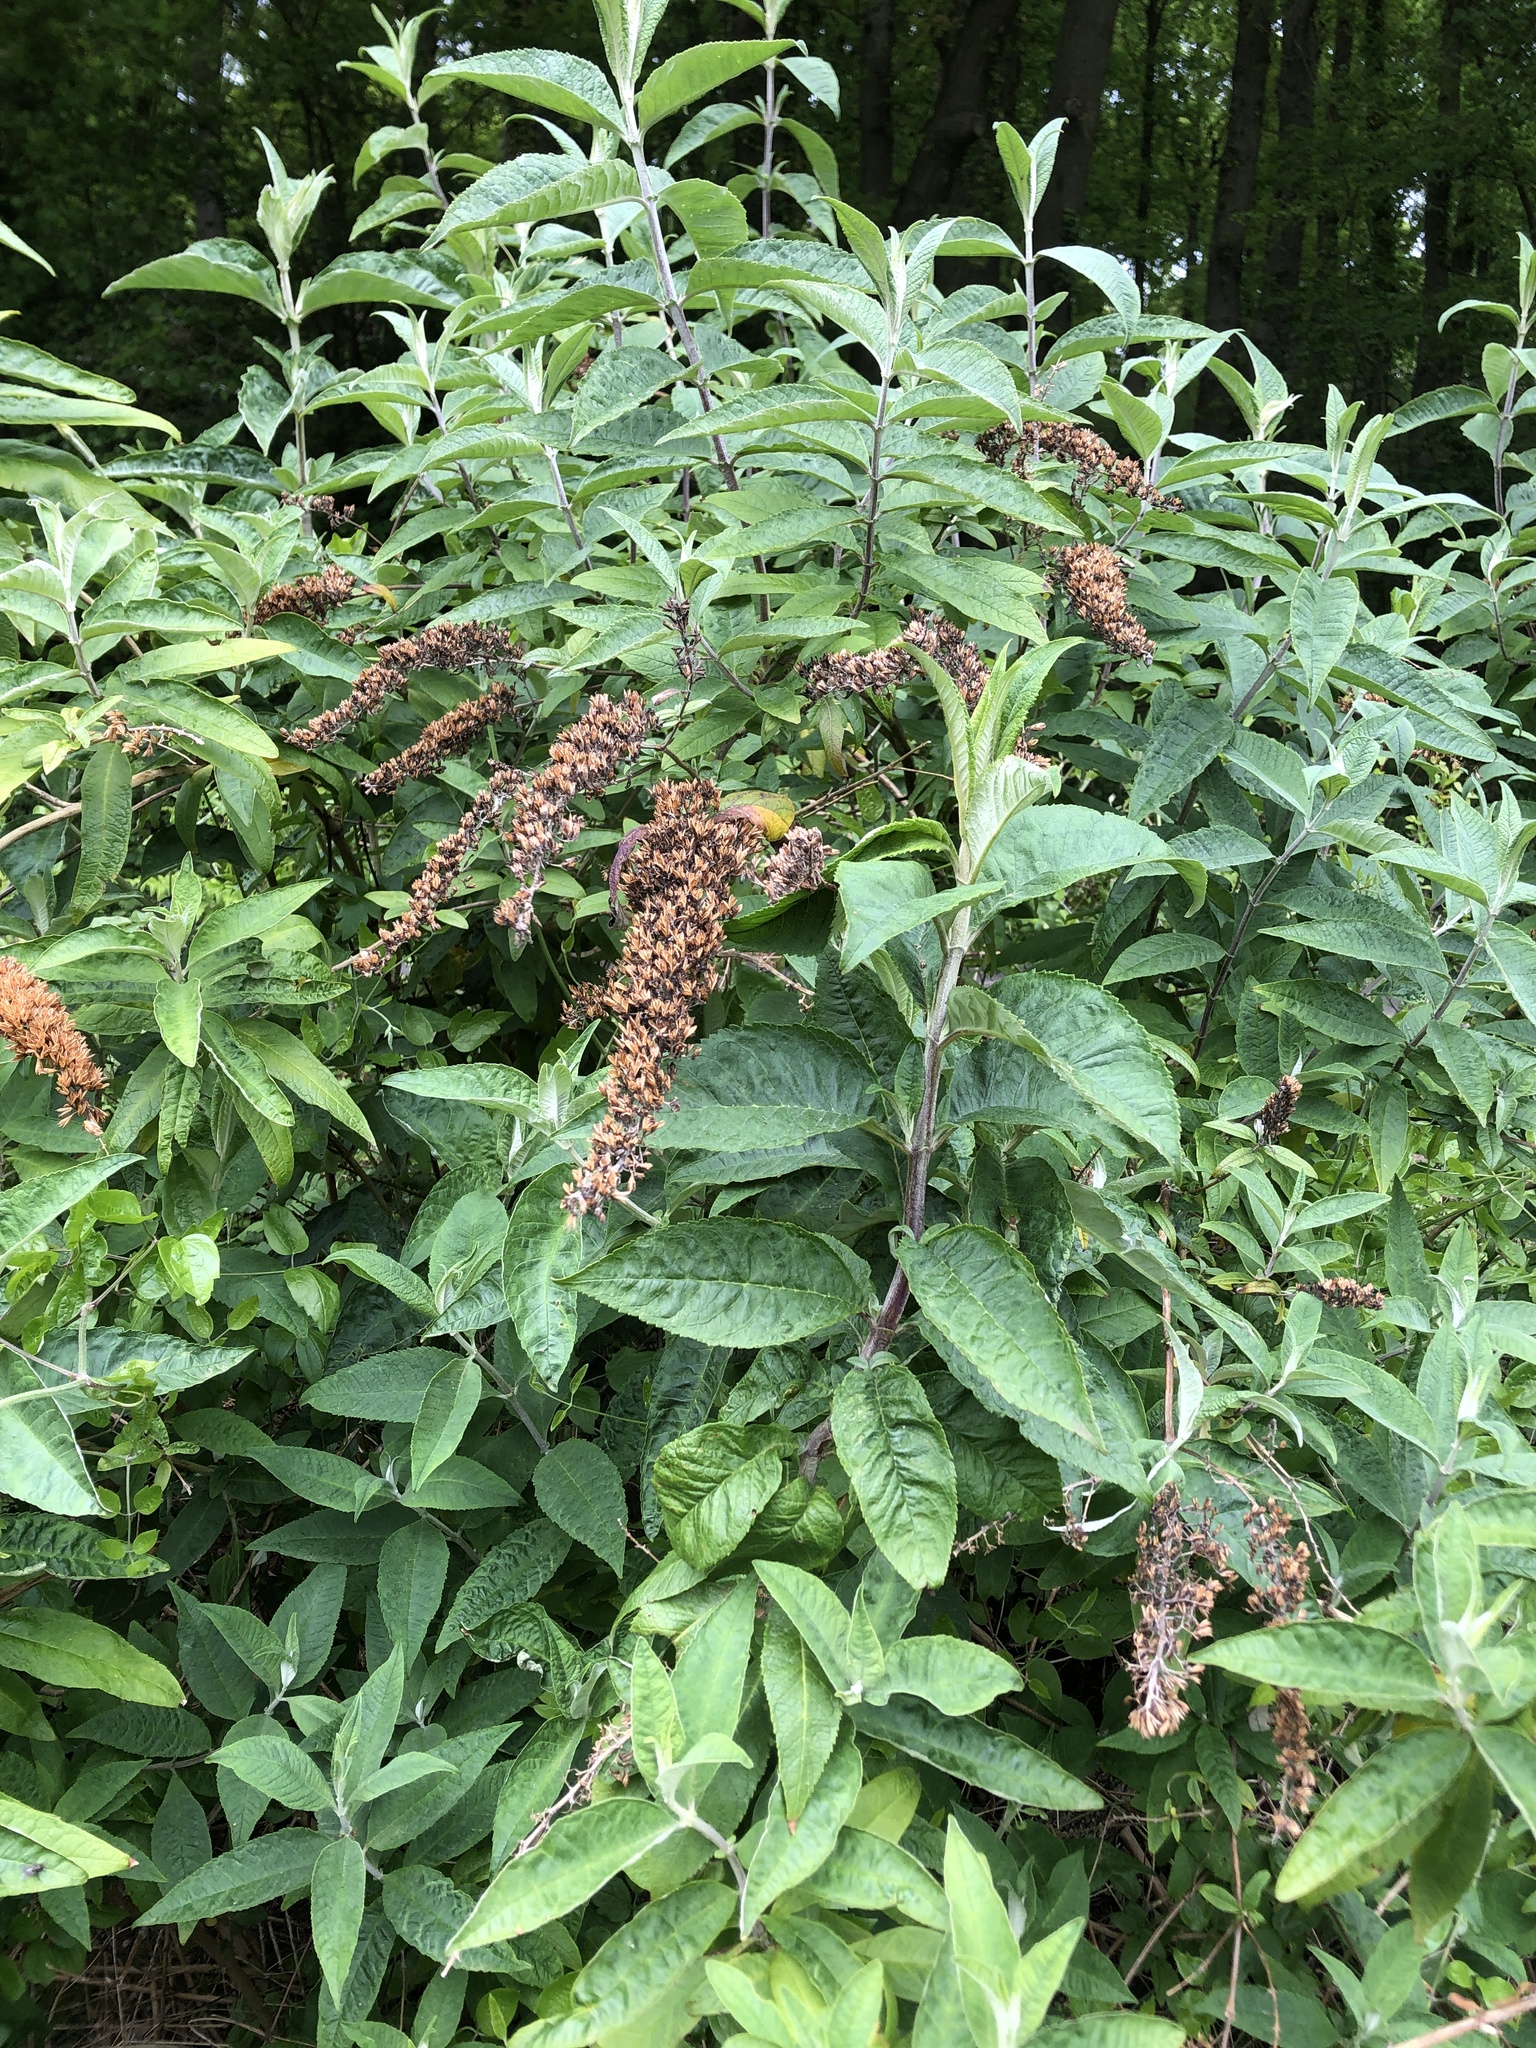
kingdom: Plantae
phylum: Tracheophyta
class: Magnoliopsida
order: Lamiales
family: Scrophulariaceae
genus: Buddleja
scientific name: Buddleja davidii
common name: Butterfly-bush
